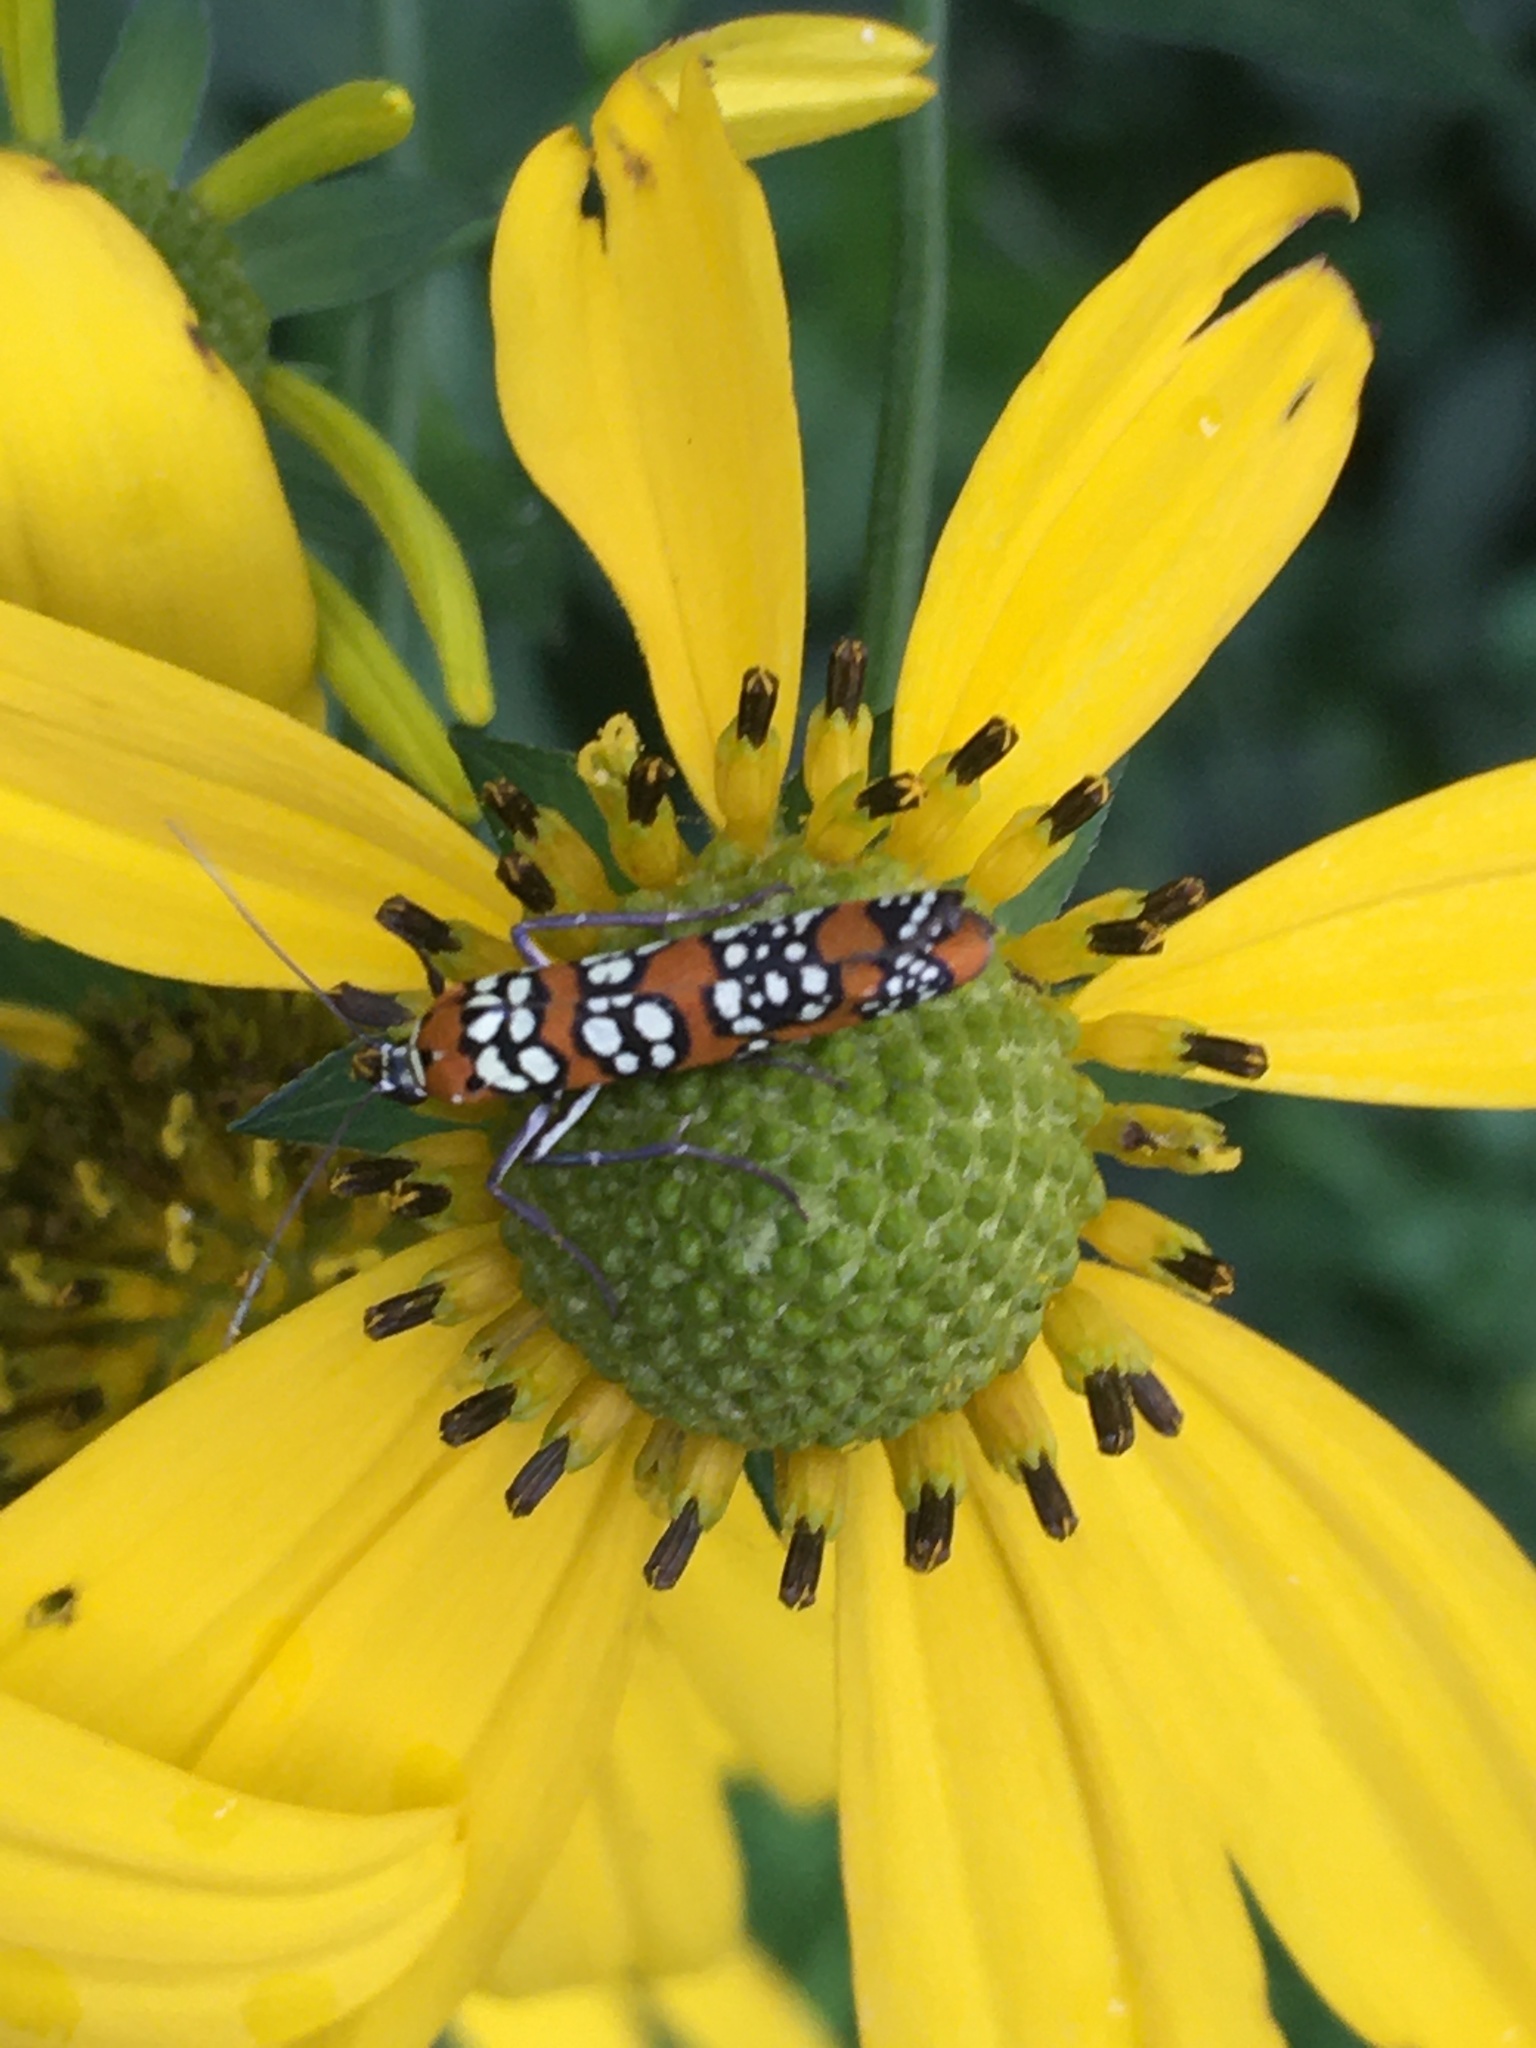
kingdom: Animalia
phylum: Arthropoda
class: Insecta
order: Lepidoptera
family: Attevidae
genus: Atteva
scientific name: Atteva punctella
